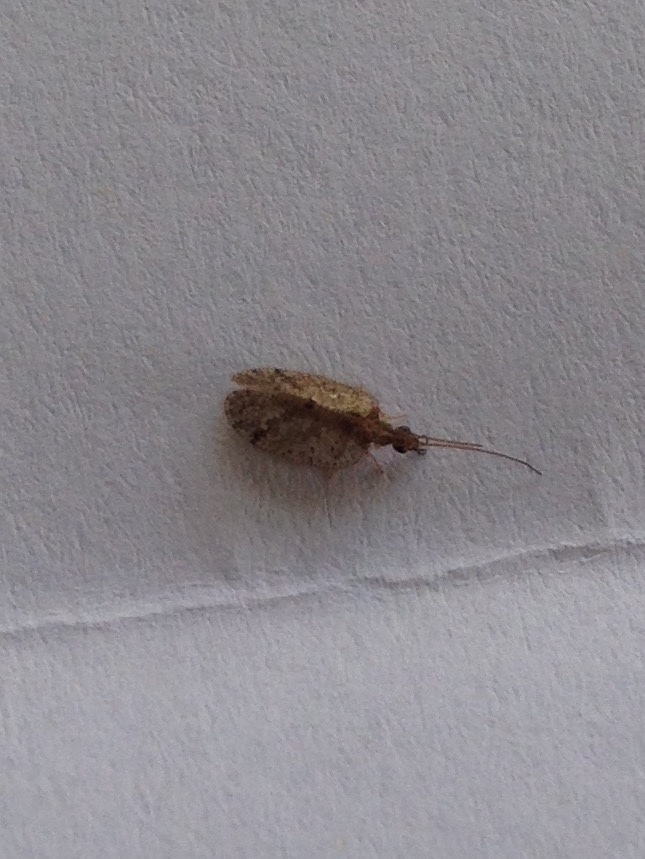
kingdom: Animalia
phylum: Arthropoda
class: Insecta
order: Neuroptera
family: Hemerobiidae
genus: Psectra
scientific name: Psectra nakaharai
